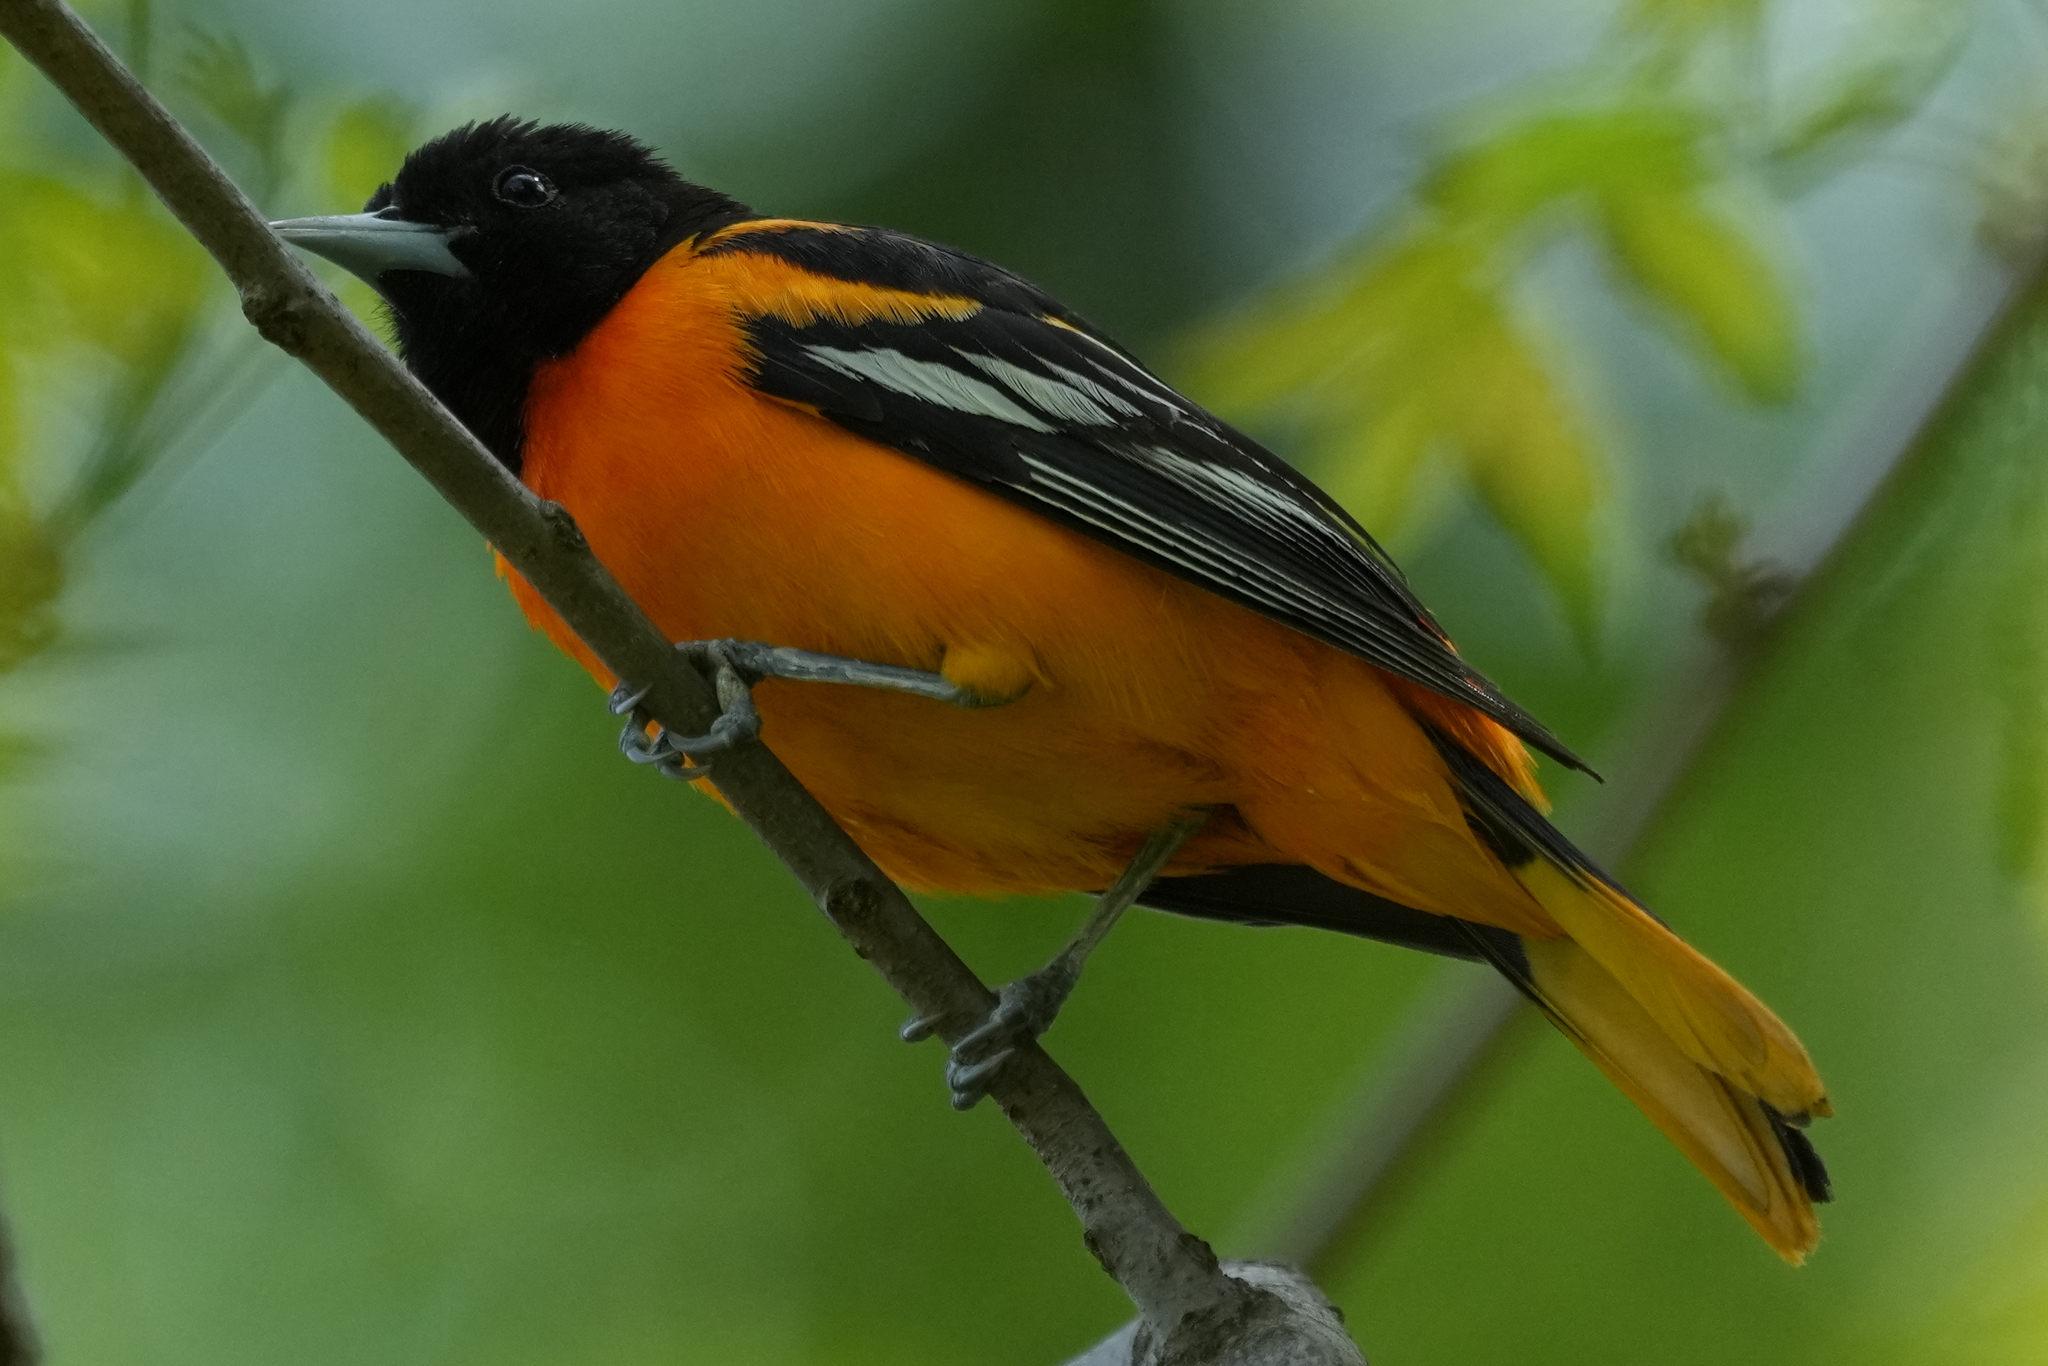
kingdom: Animalia
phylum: Chordata
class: Aves
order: Passeriformes
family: Icteridae
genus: Icterus
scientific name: Icterus galbula
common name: Baltimore oriole
